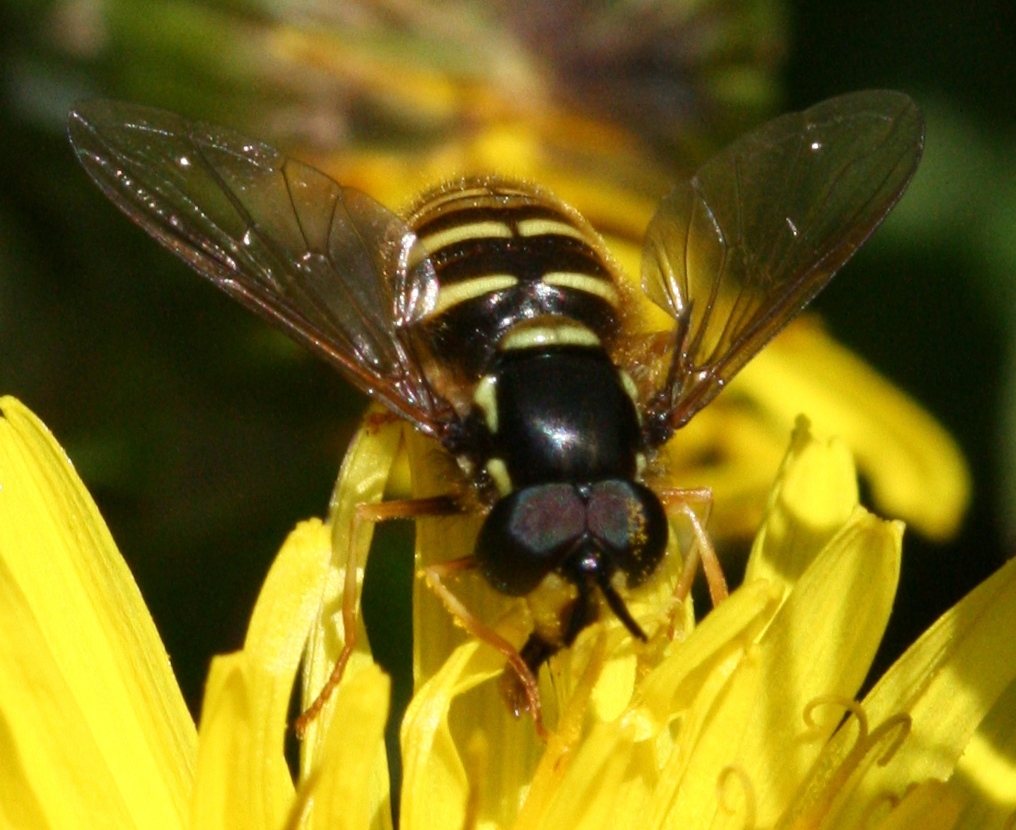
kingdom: Animalia
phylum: Arthropoda
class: Insecta
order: Diptera
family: Syrphidae
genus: Chrysotoxum
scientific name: Chrysotoxum arcuatum
